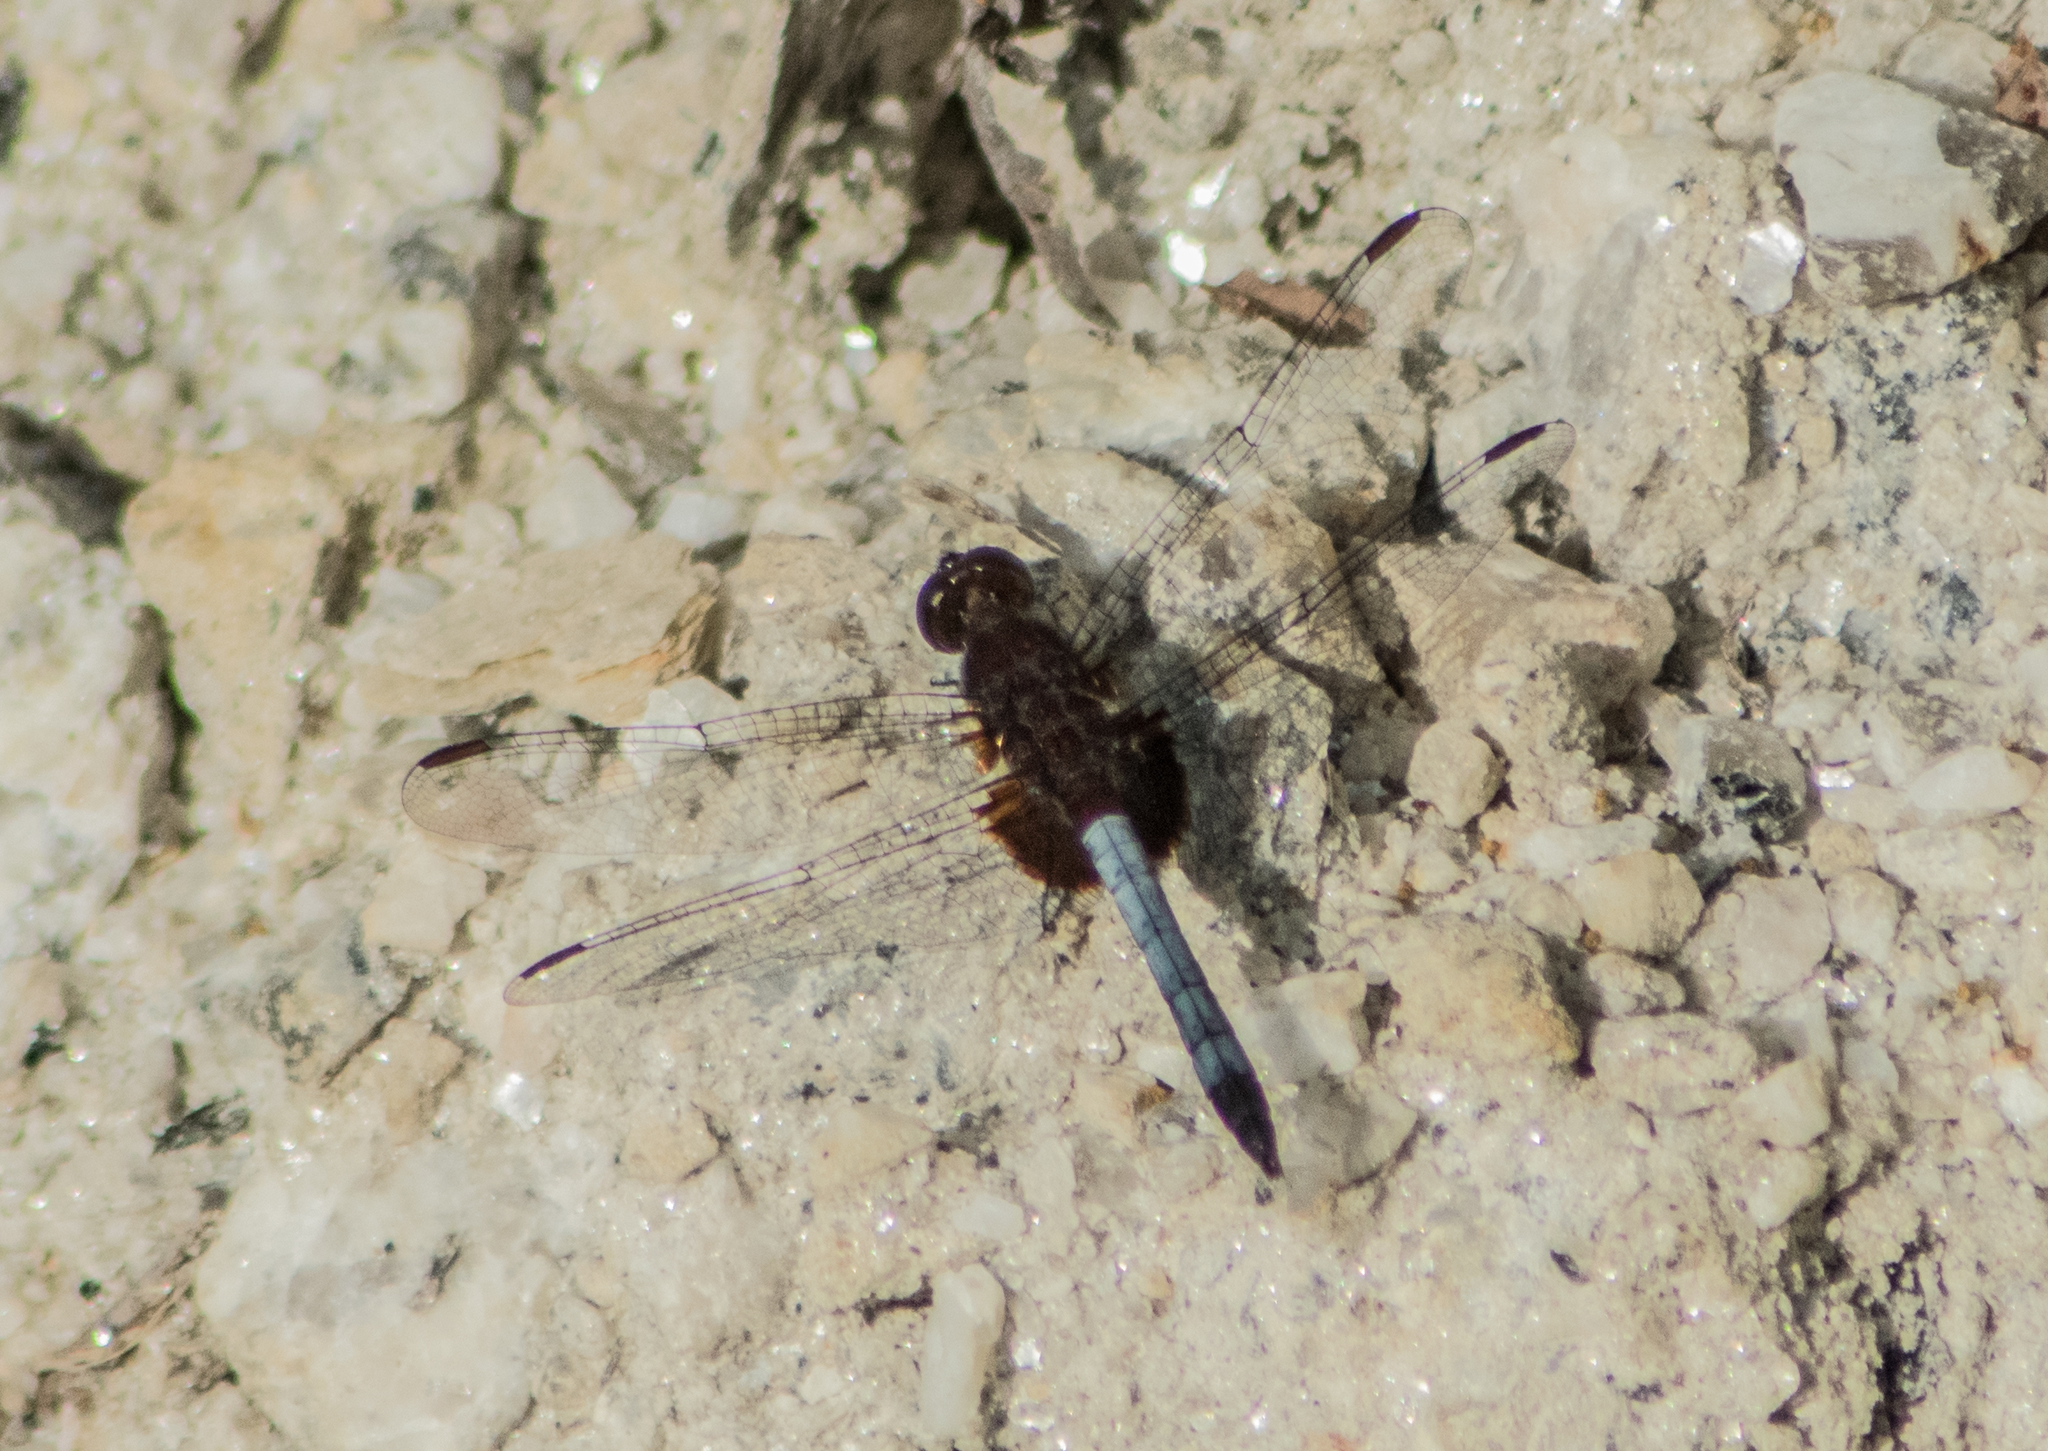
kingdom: Animalia
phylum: Arthropoda
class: Insecta
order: Odonata
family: Libellulidae
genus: Erythrodiplax
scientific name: Erythrodiplax unimaculata
